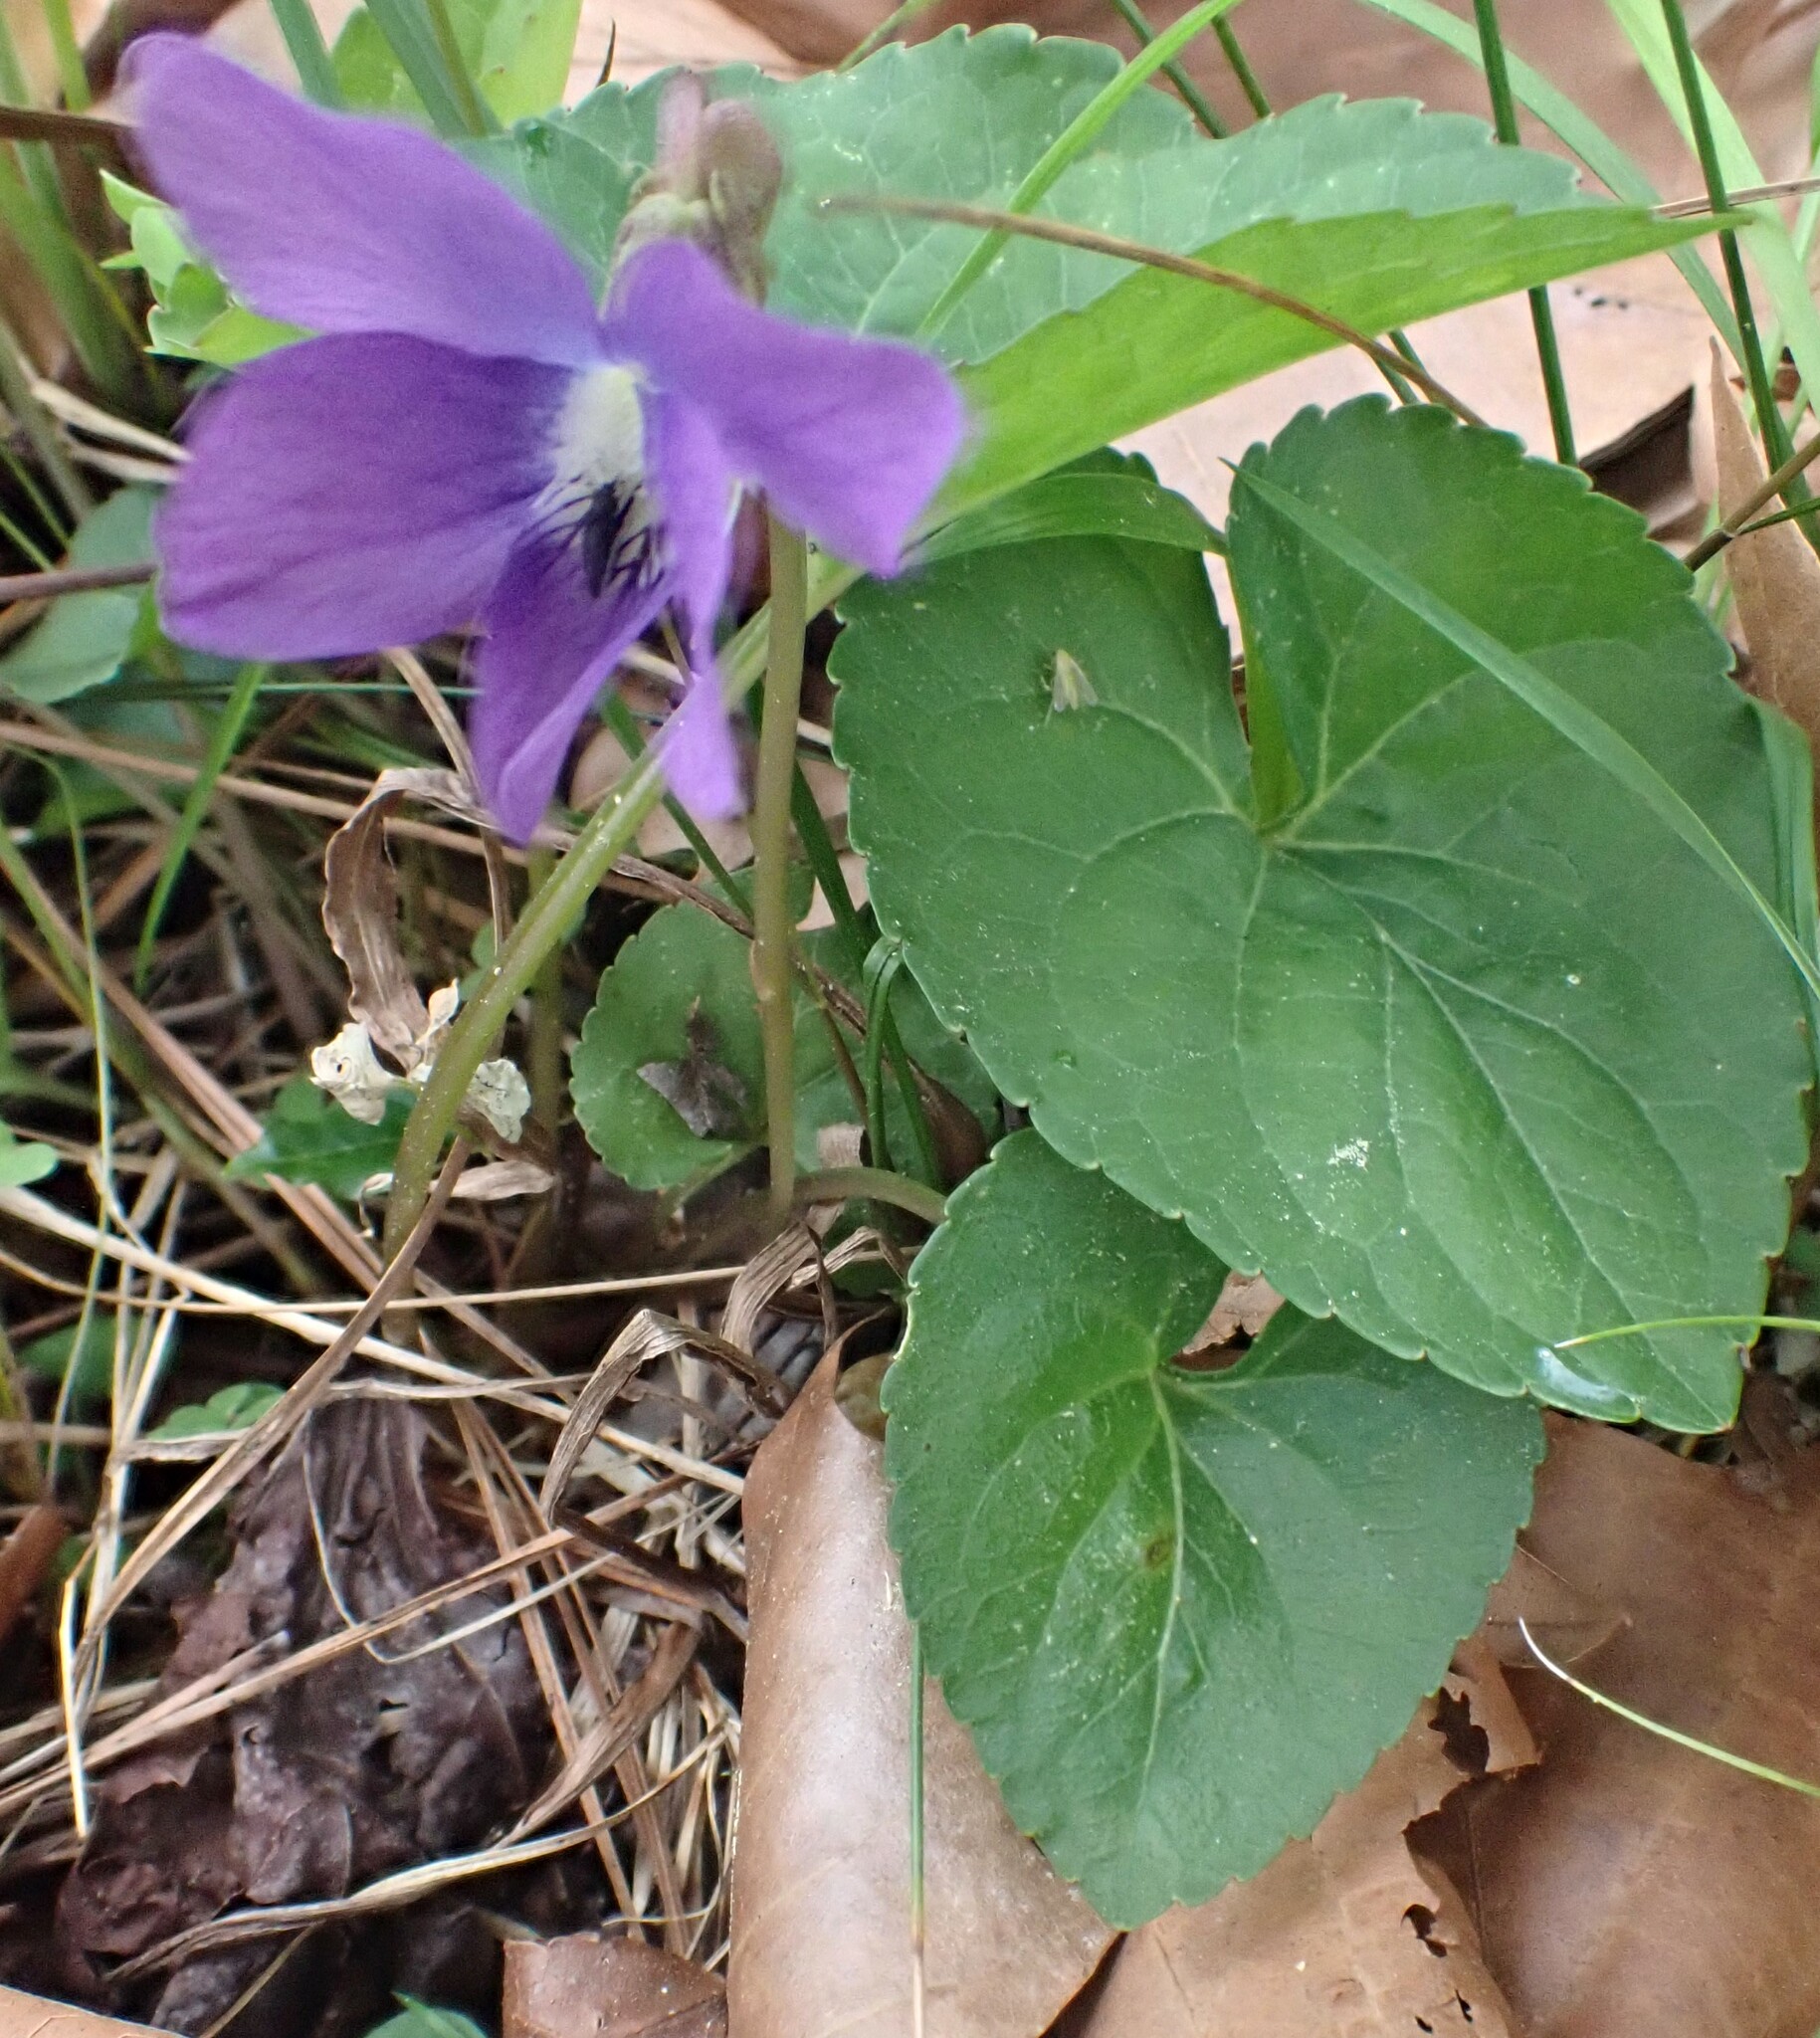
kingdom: Plantae
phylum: Tracheophyta
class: Magnoliopsida
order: Malpighiales
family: Violaceae
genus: Viola
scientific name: Viola sororia
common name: Dooryard violet
